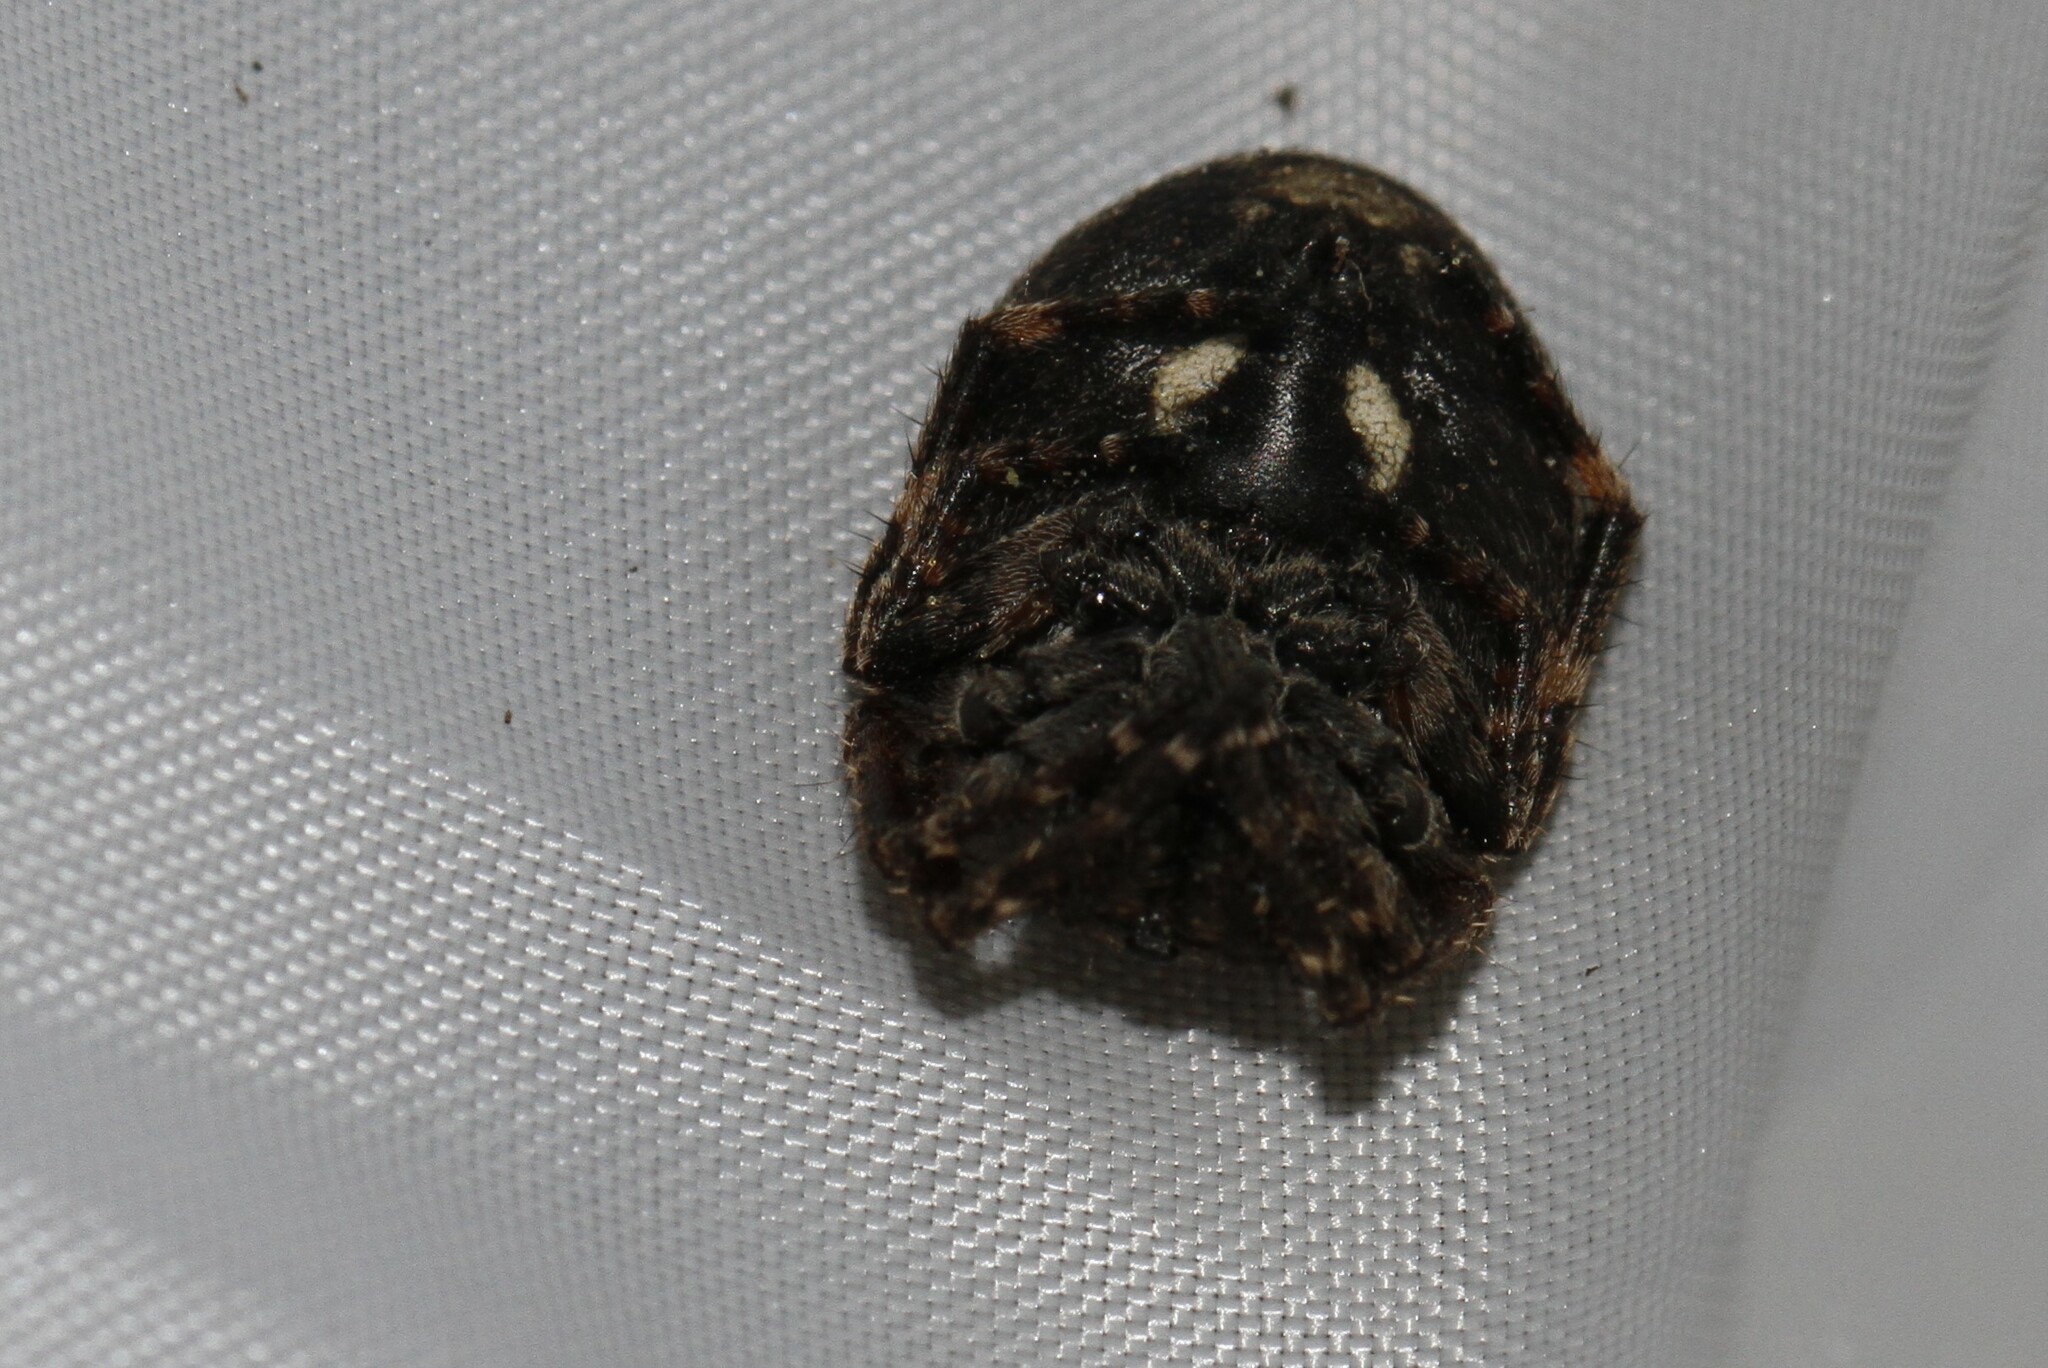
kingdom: Animalia
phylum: Arthropoda
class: Arachnida
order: Araneae
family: Araneidae
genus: Nuctenea
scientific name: Nuctenea umbratica
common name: Toad spider
